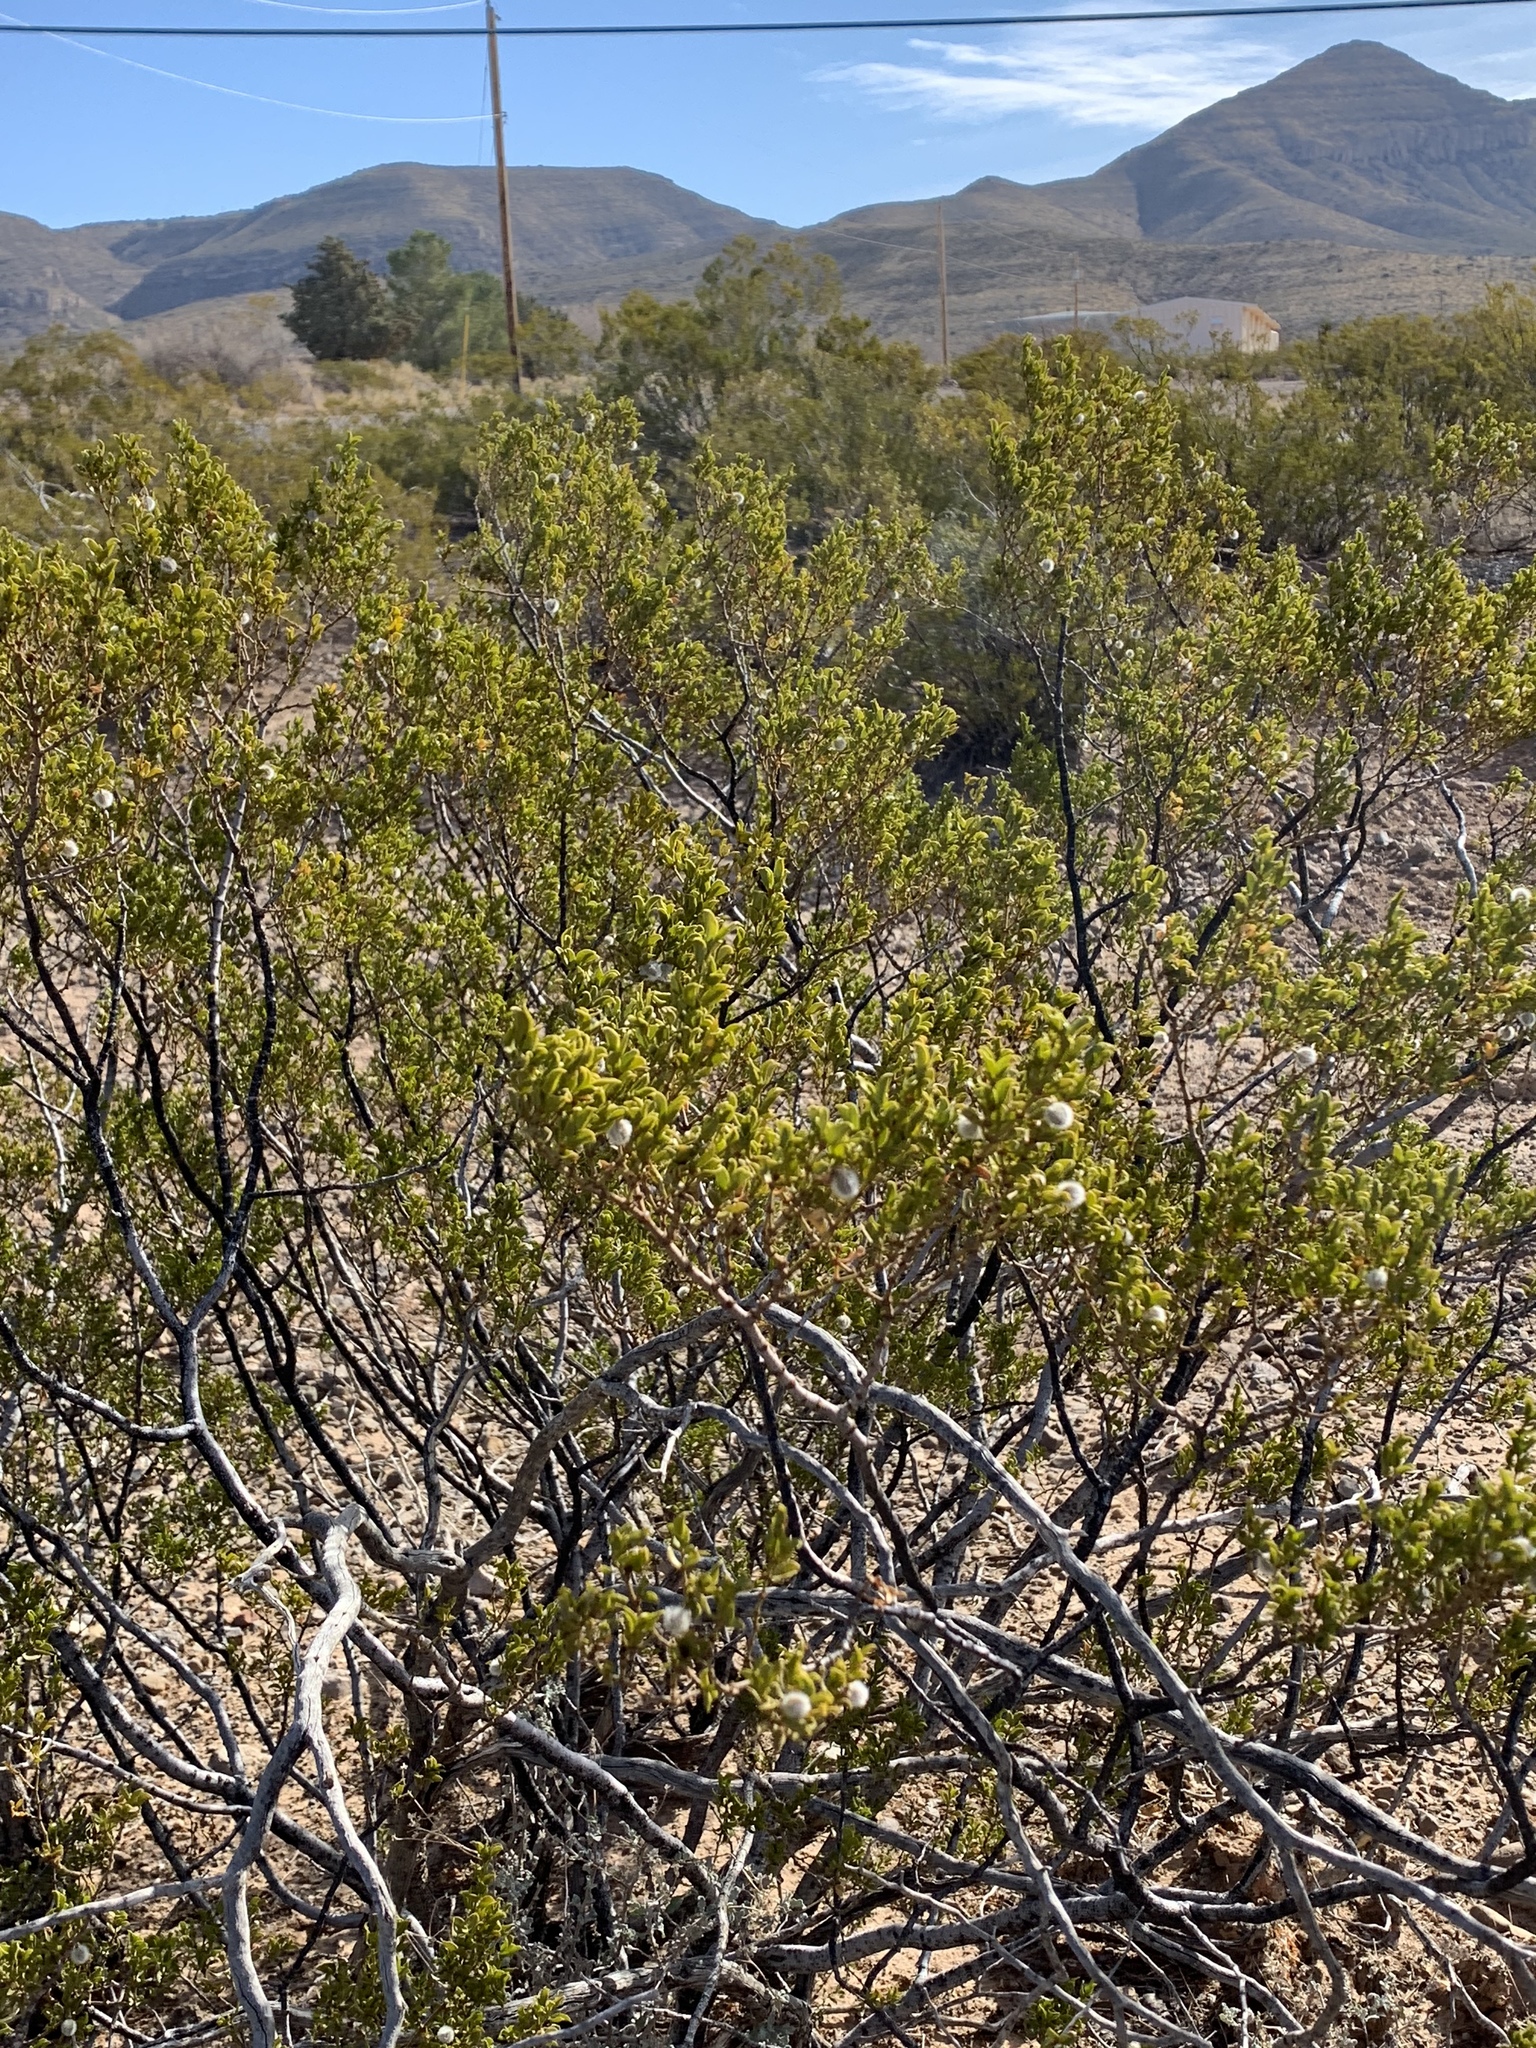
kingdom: Plantae
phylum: Tracheophyta
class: Magnoliopsida
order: Zygophyllales
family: Zygophyllaceae
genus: Larrea
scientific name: Larrea tridentata
